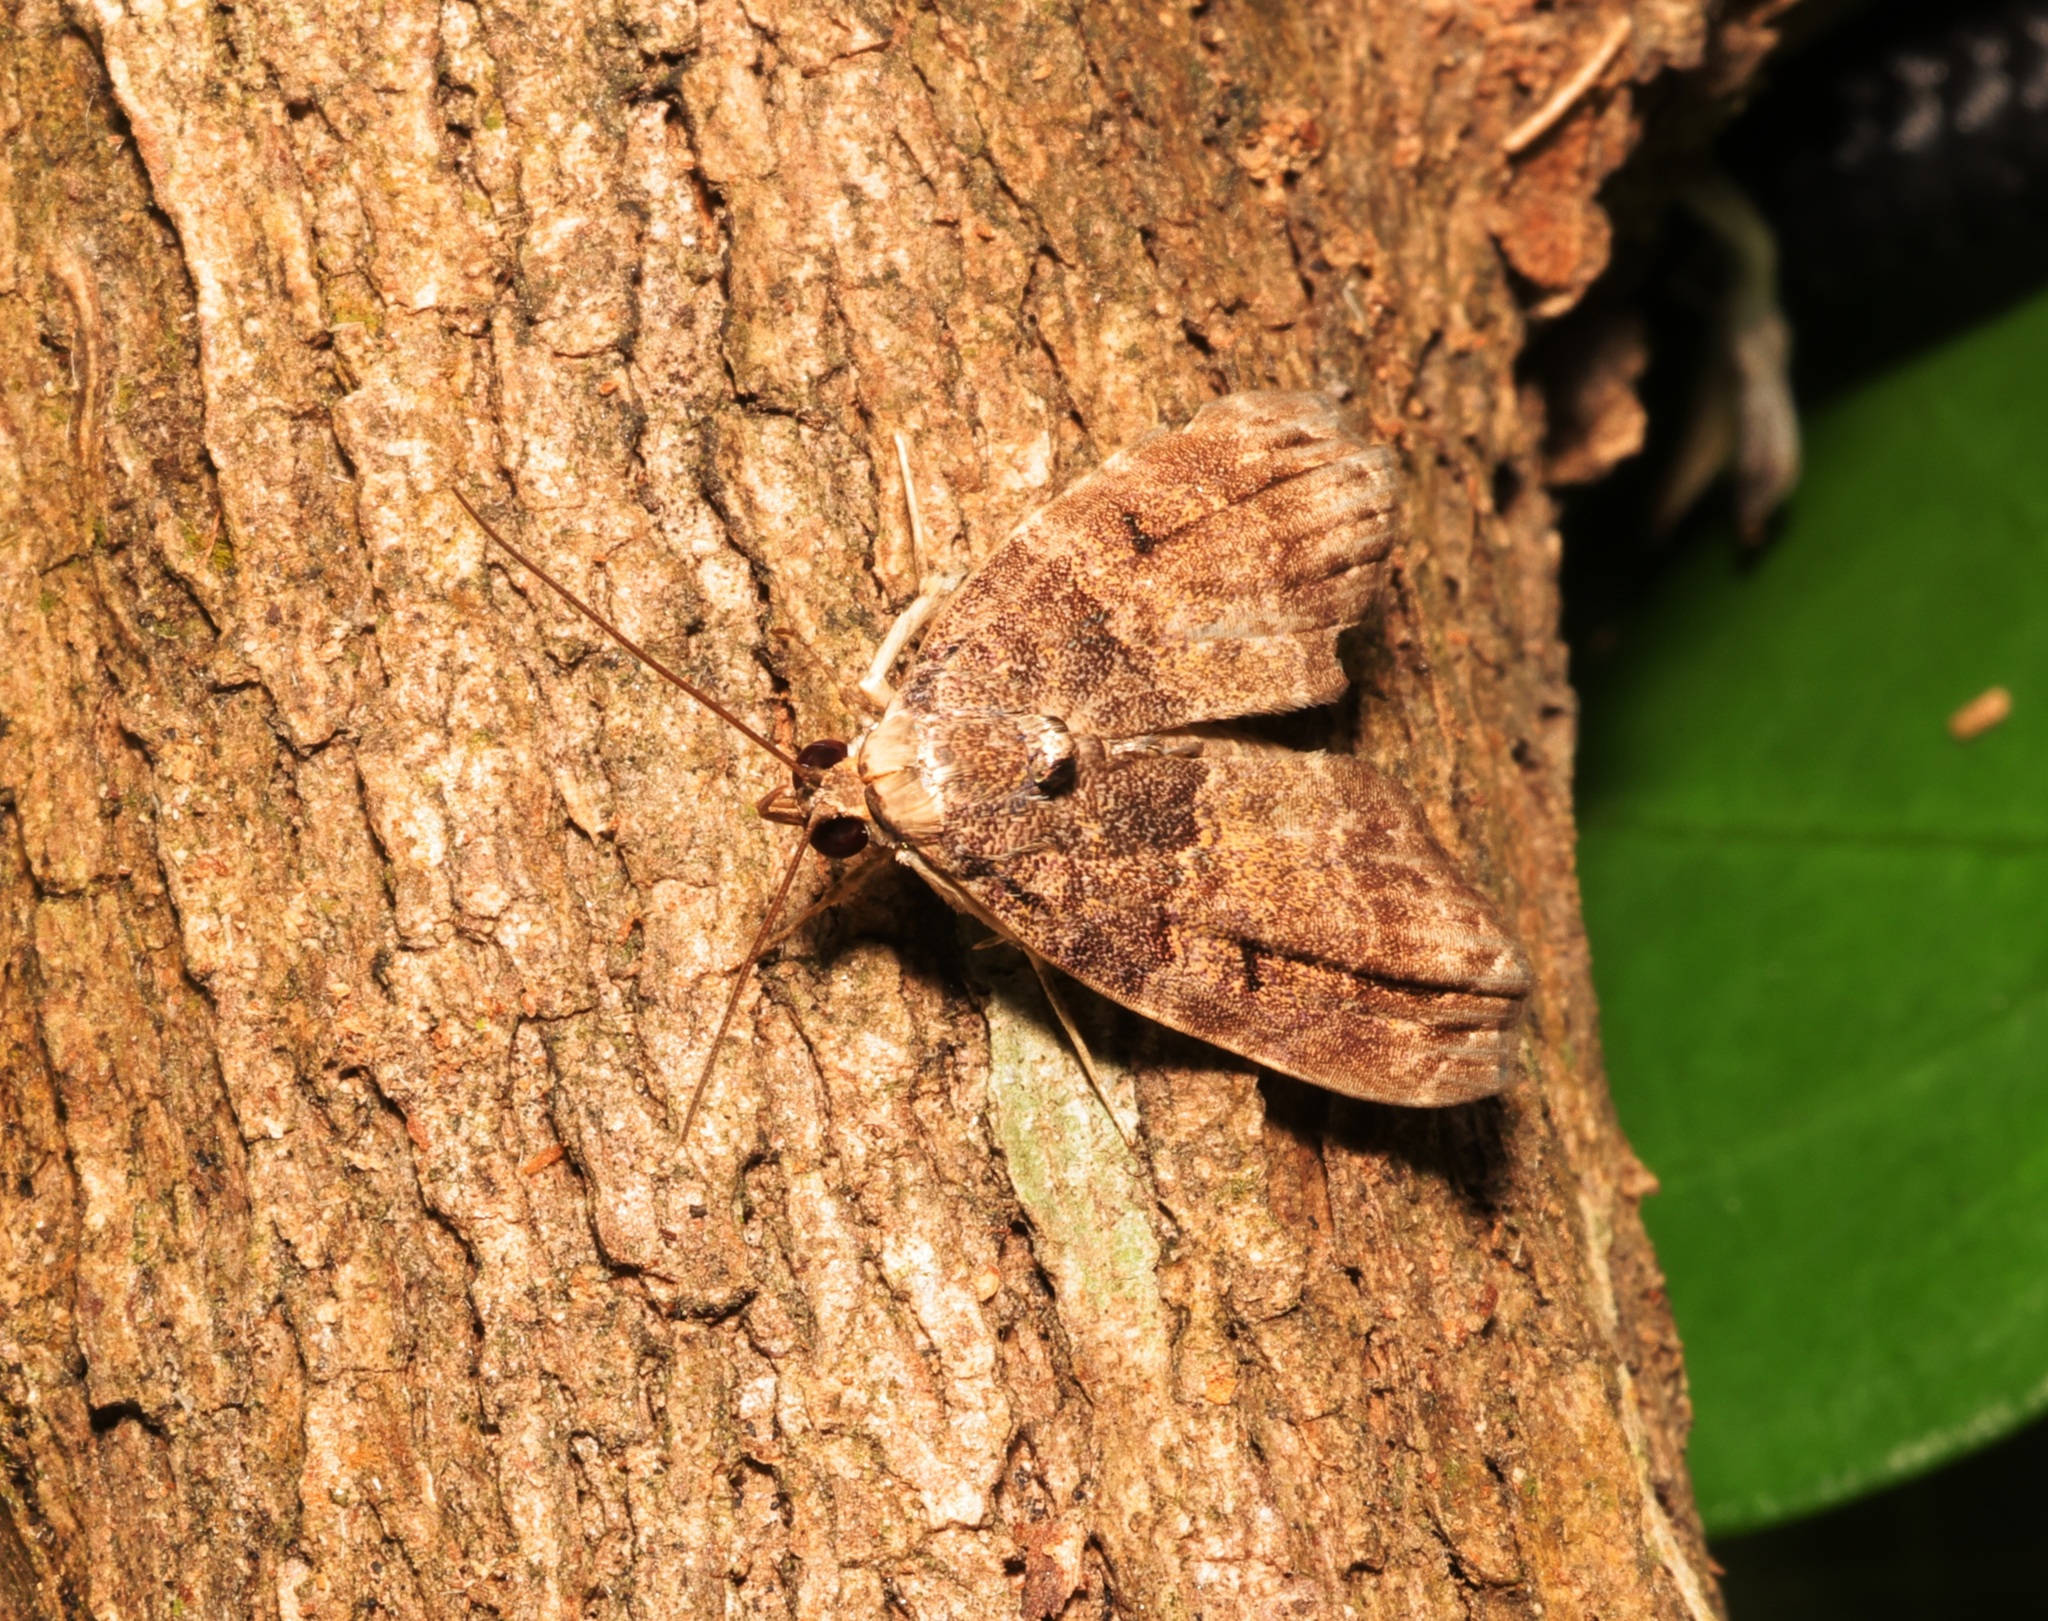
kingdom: Animalia
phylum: Arthropoda
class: Insecta
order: Lepidoptera
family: Nolidae
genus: Labanda
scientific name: Labanda semipars
